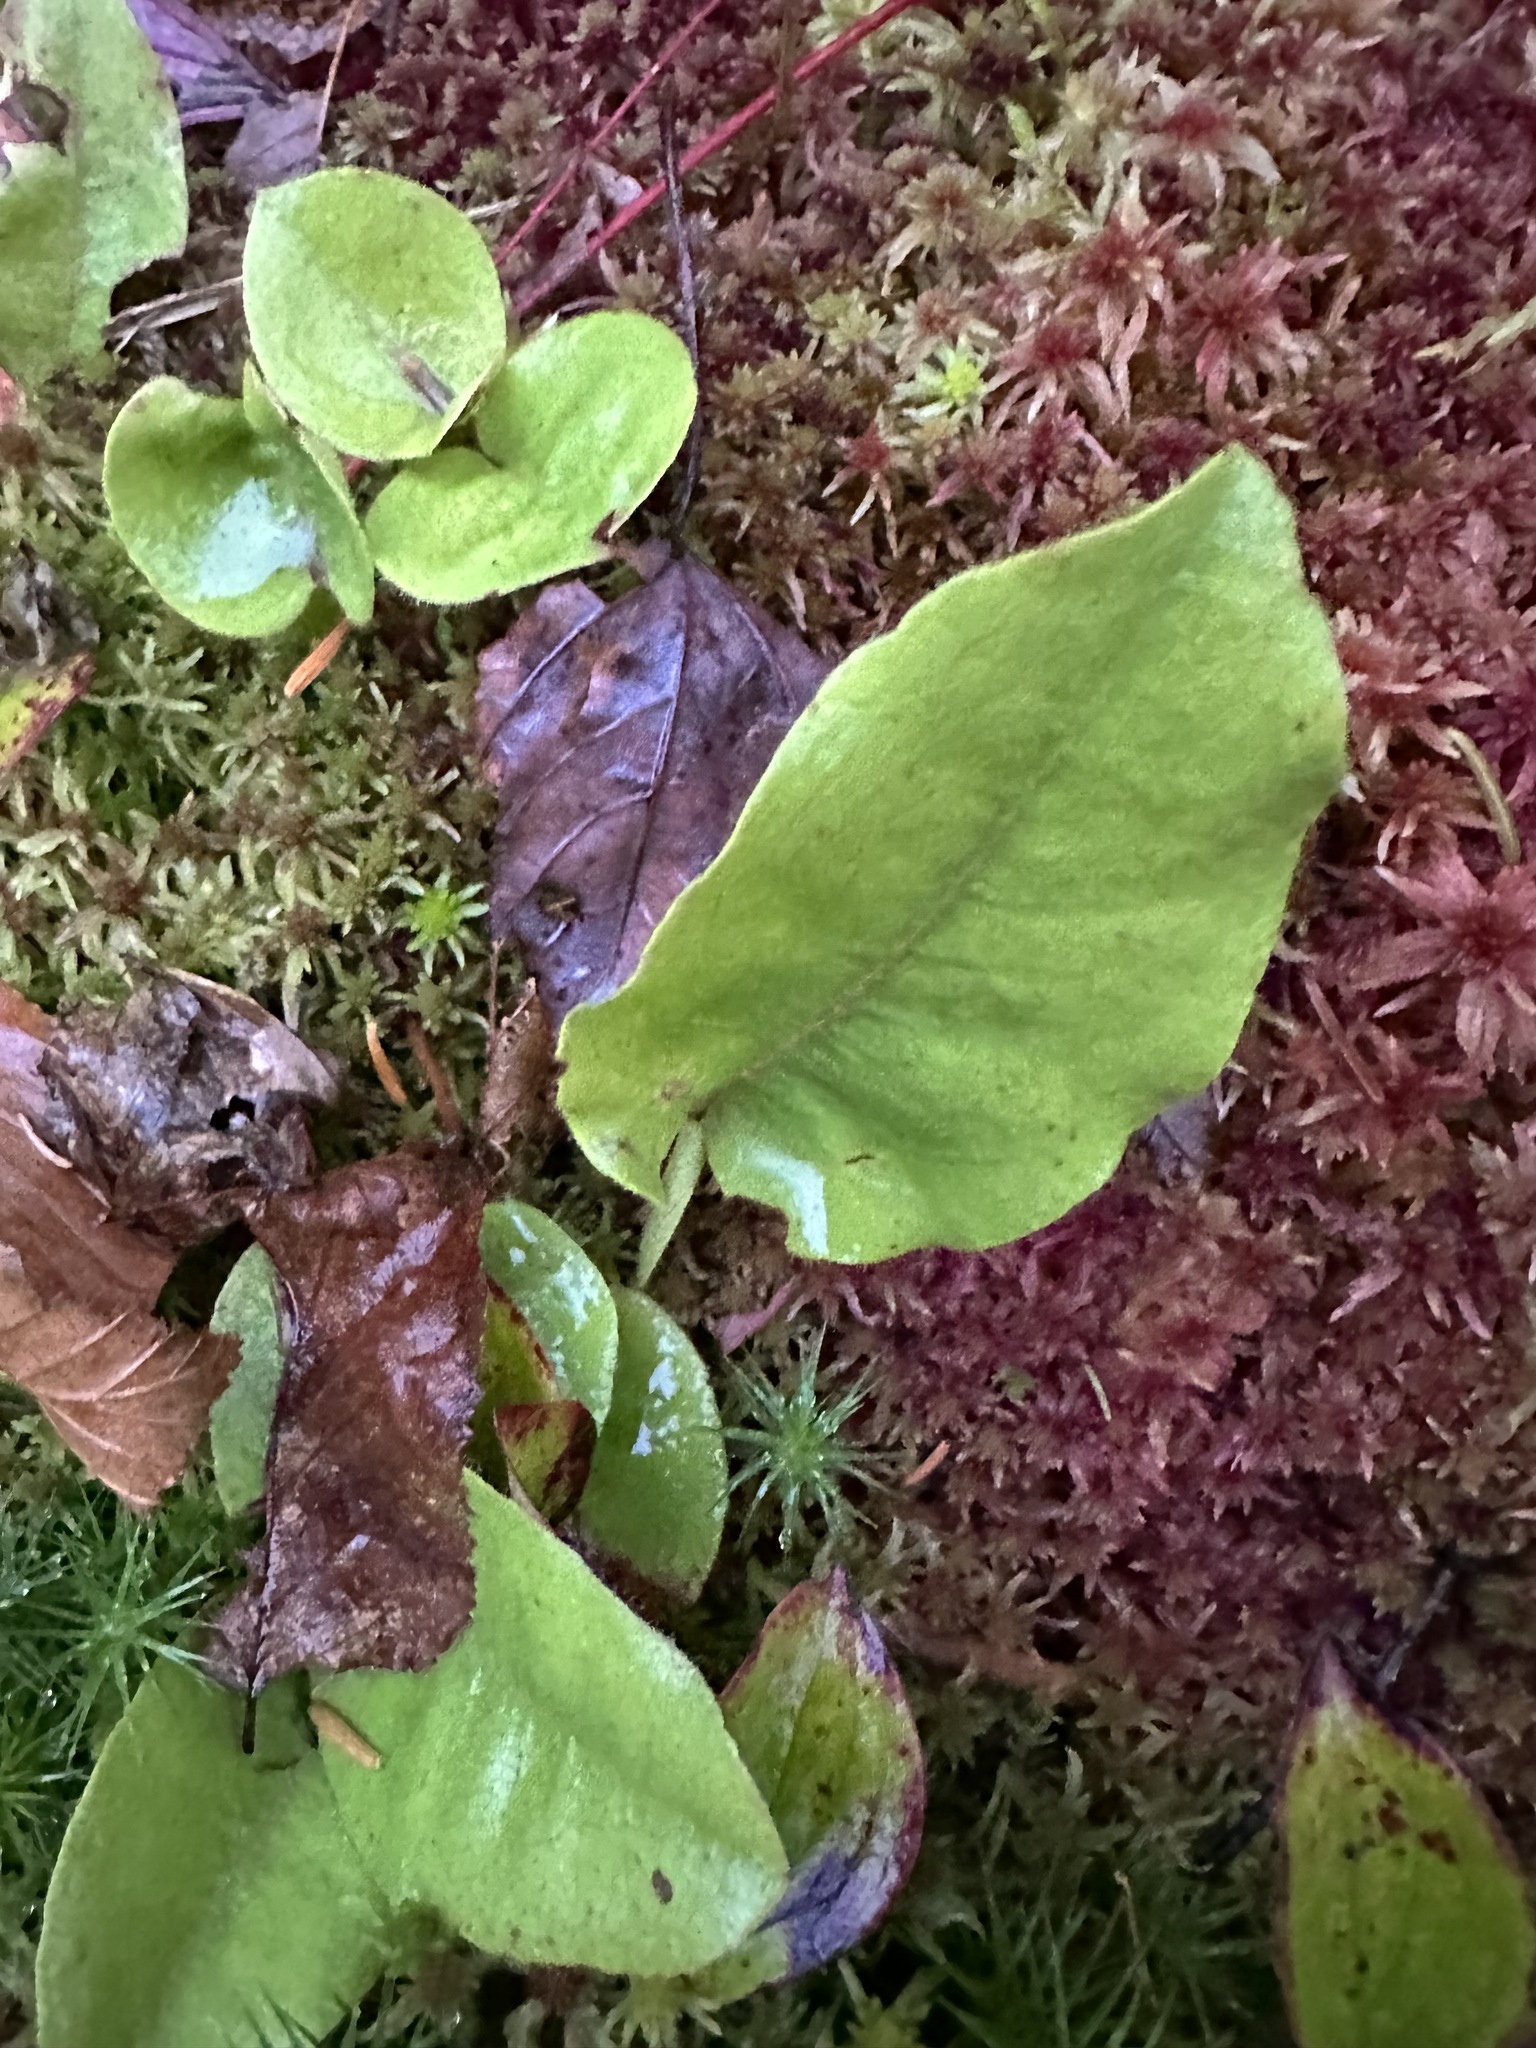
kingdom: Plantae
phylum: Tracheophyta
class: Magnoliopsida
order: Ericales
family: Ericaceae
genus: Epigaea
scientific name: Epigaea repens
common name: Gravelroot
